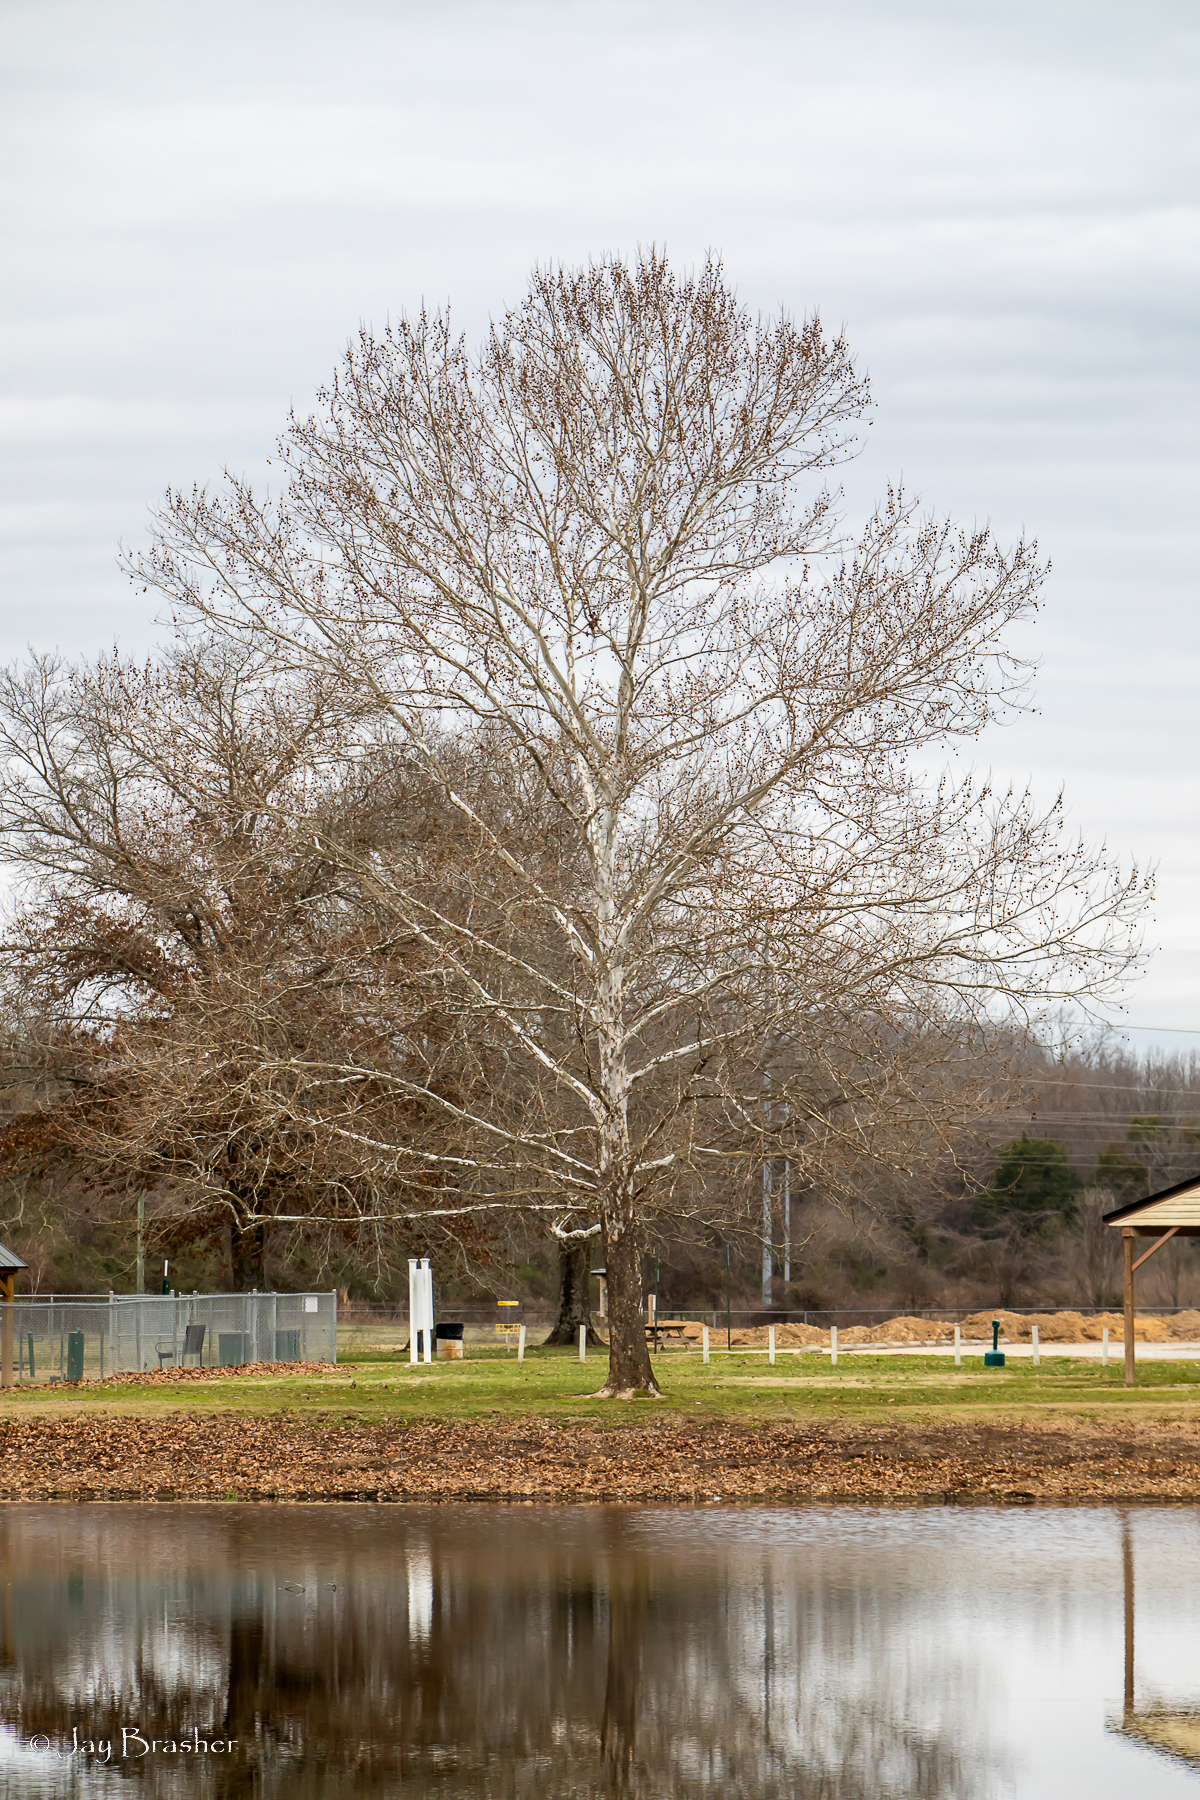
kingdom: Plantae
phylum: Tracheophyta
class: Magnoliopsida
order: Proteales
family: Platanaceae
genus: Platanus
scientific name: Platanus occidentalis
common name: American sycamore
